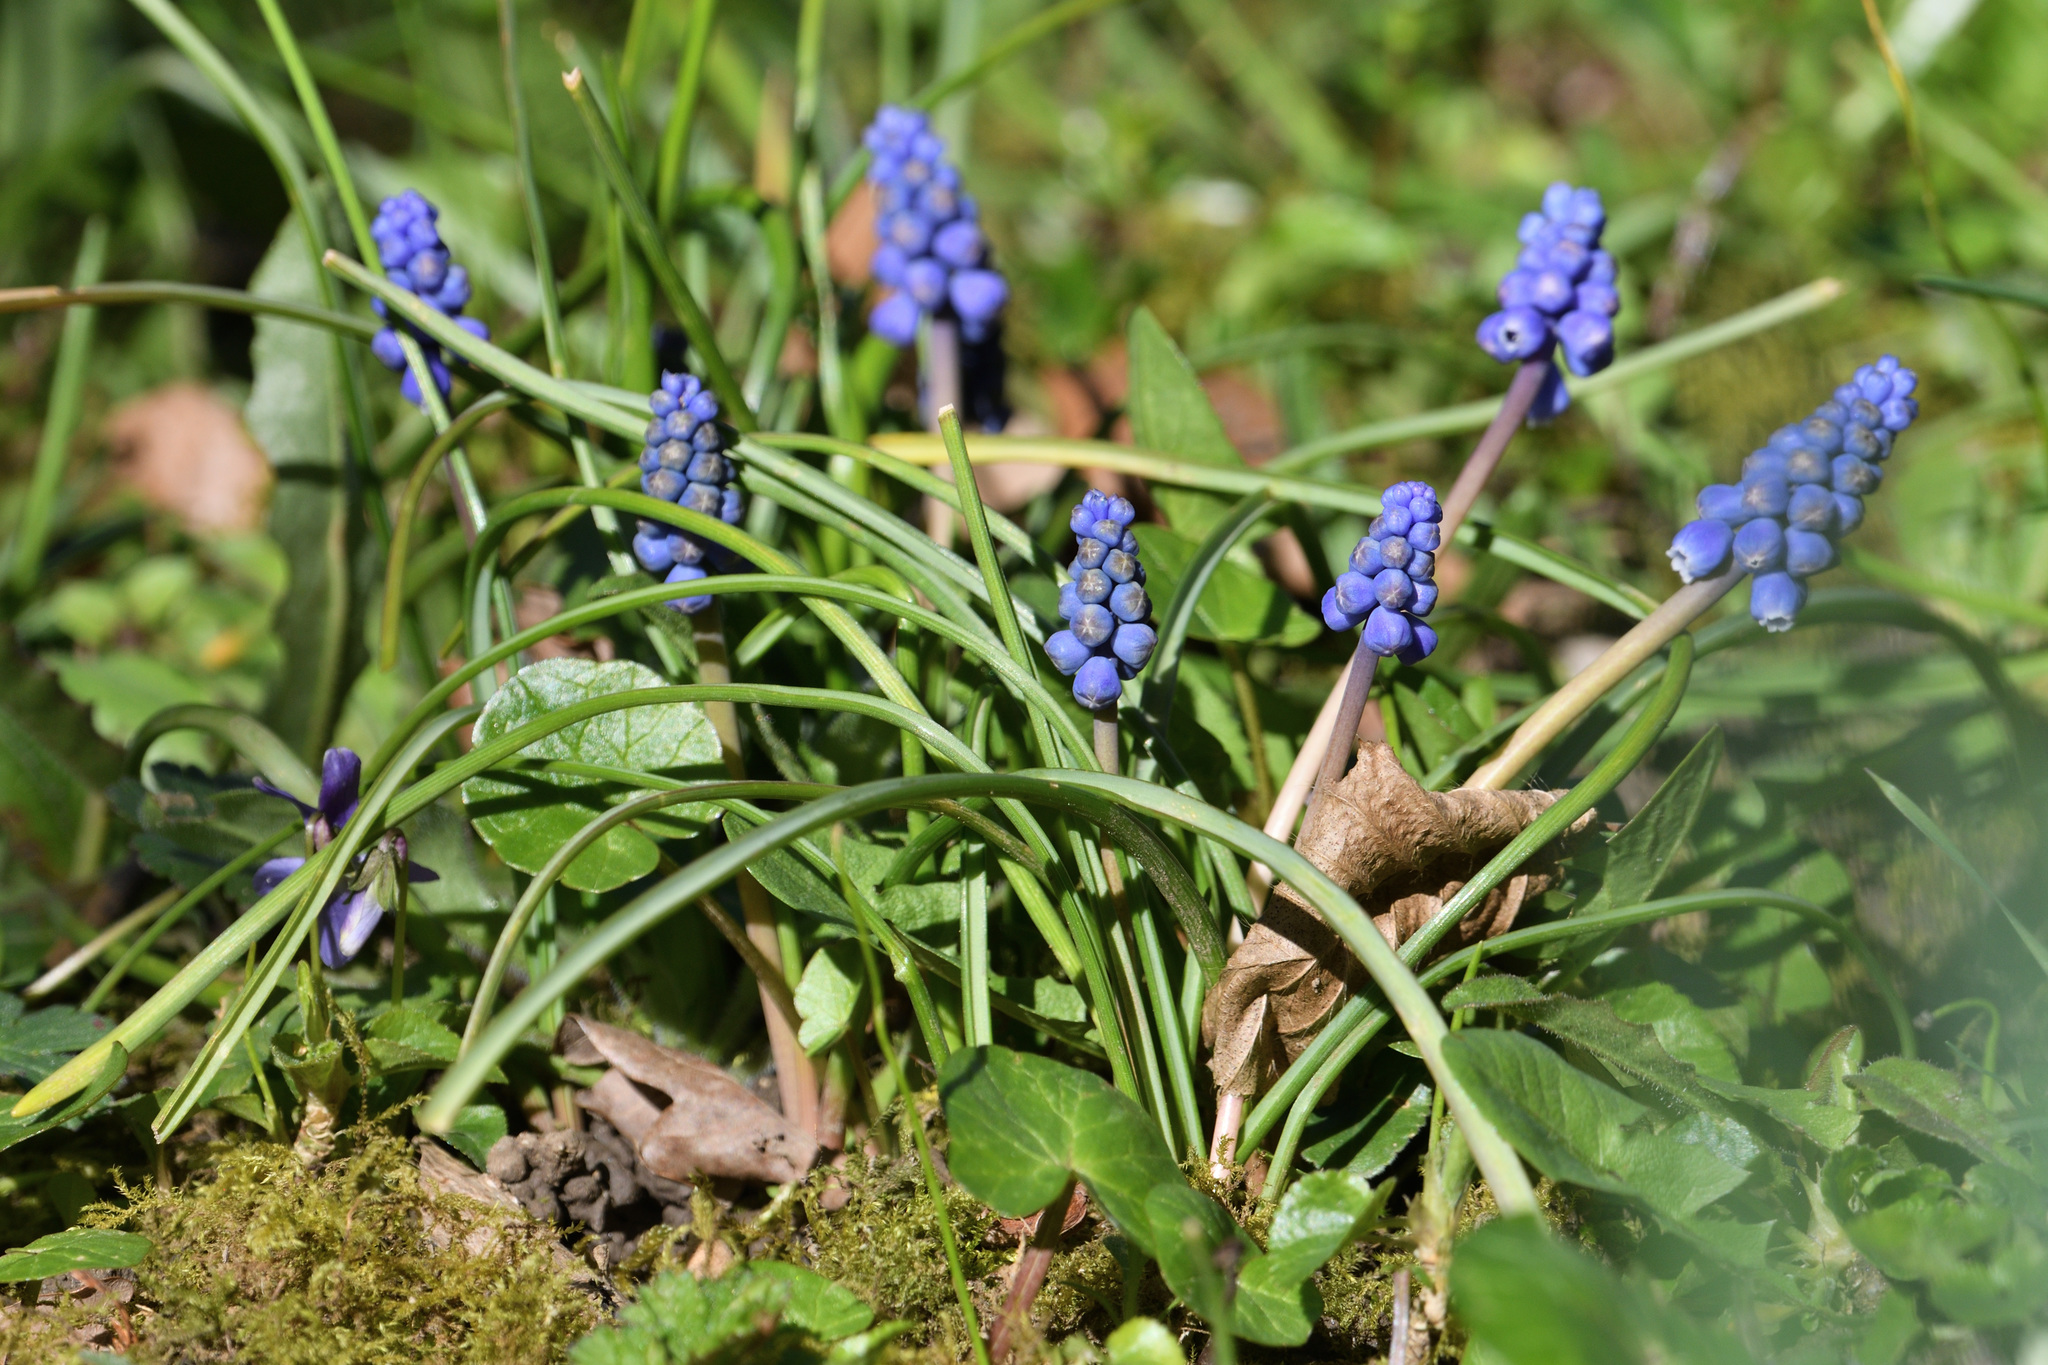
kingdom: Plantae
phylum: Tracheophyta
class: Liliopsida
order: Asparagales
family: Asparagaceae
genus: Muscari
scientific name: Muscari botryoides
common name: Compact grape-hyacinth
